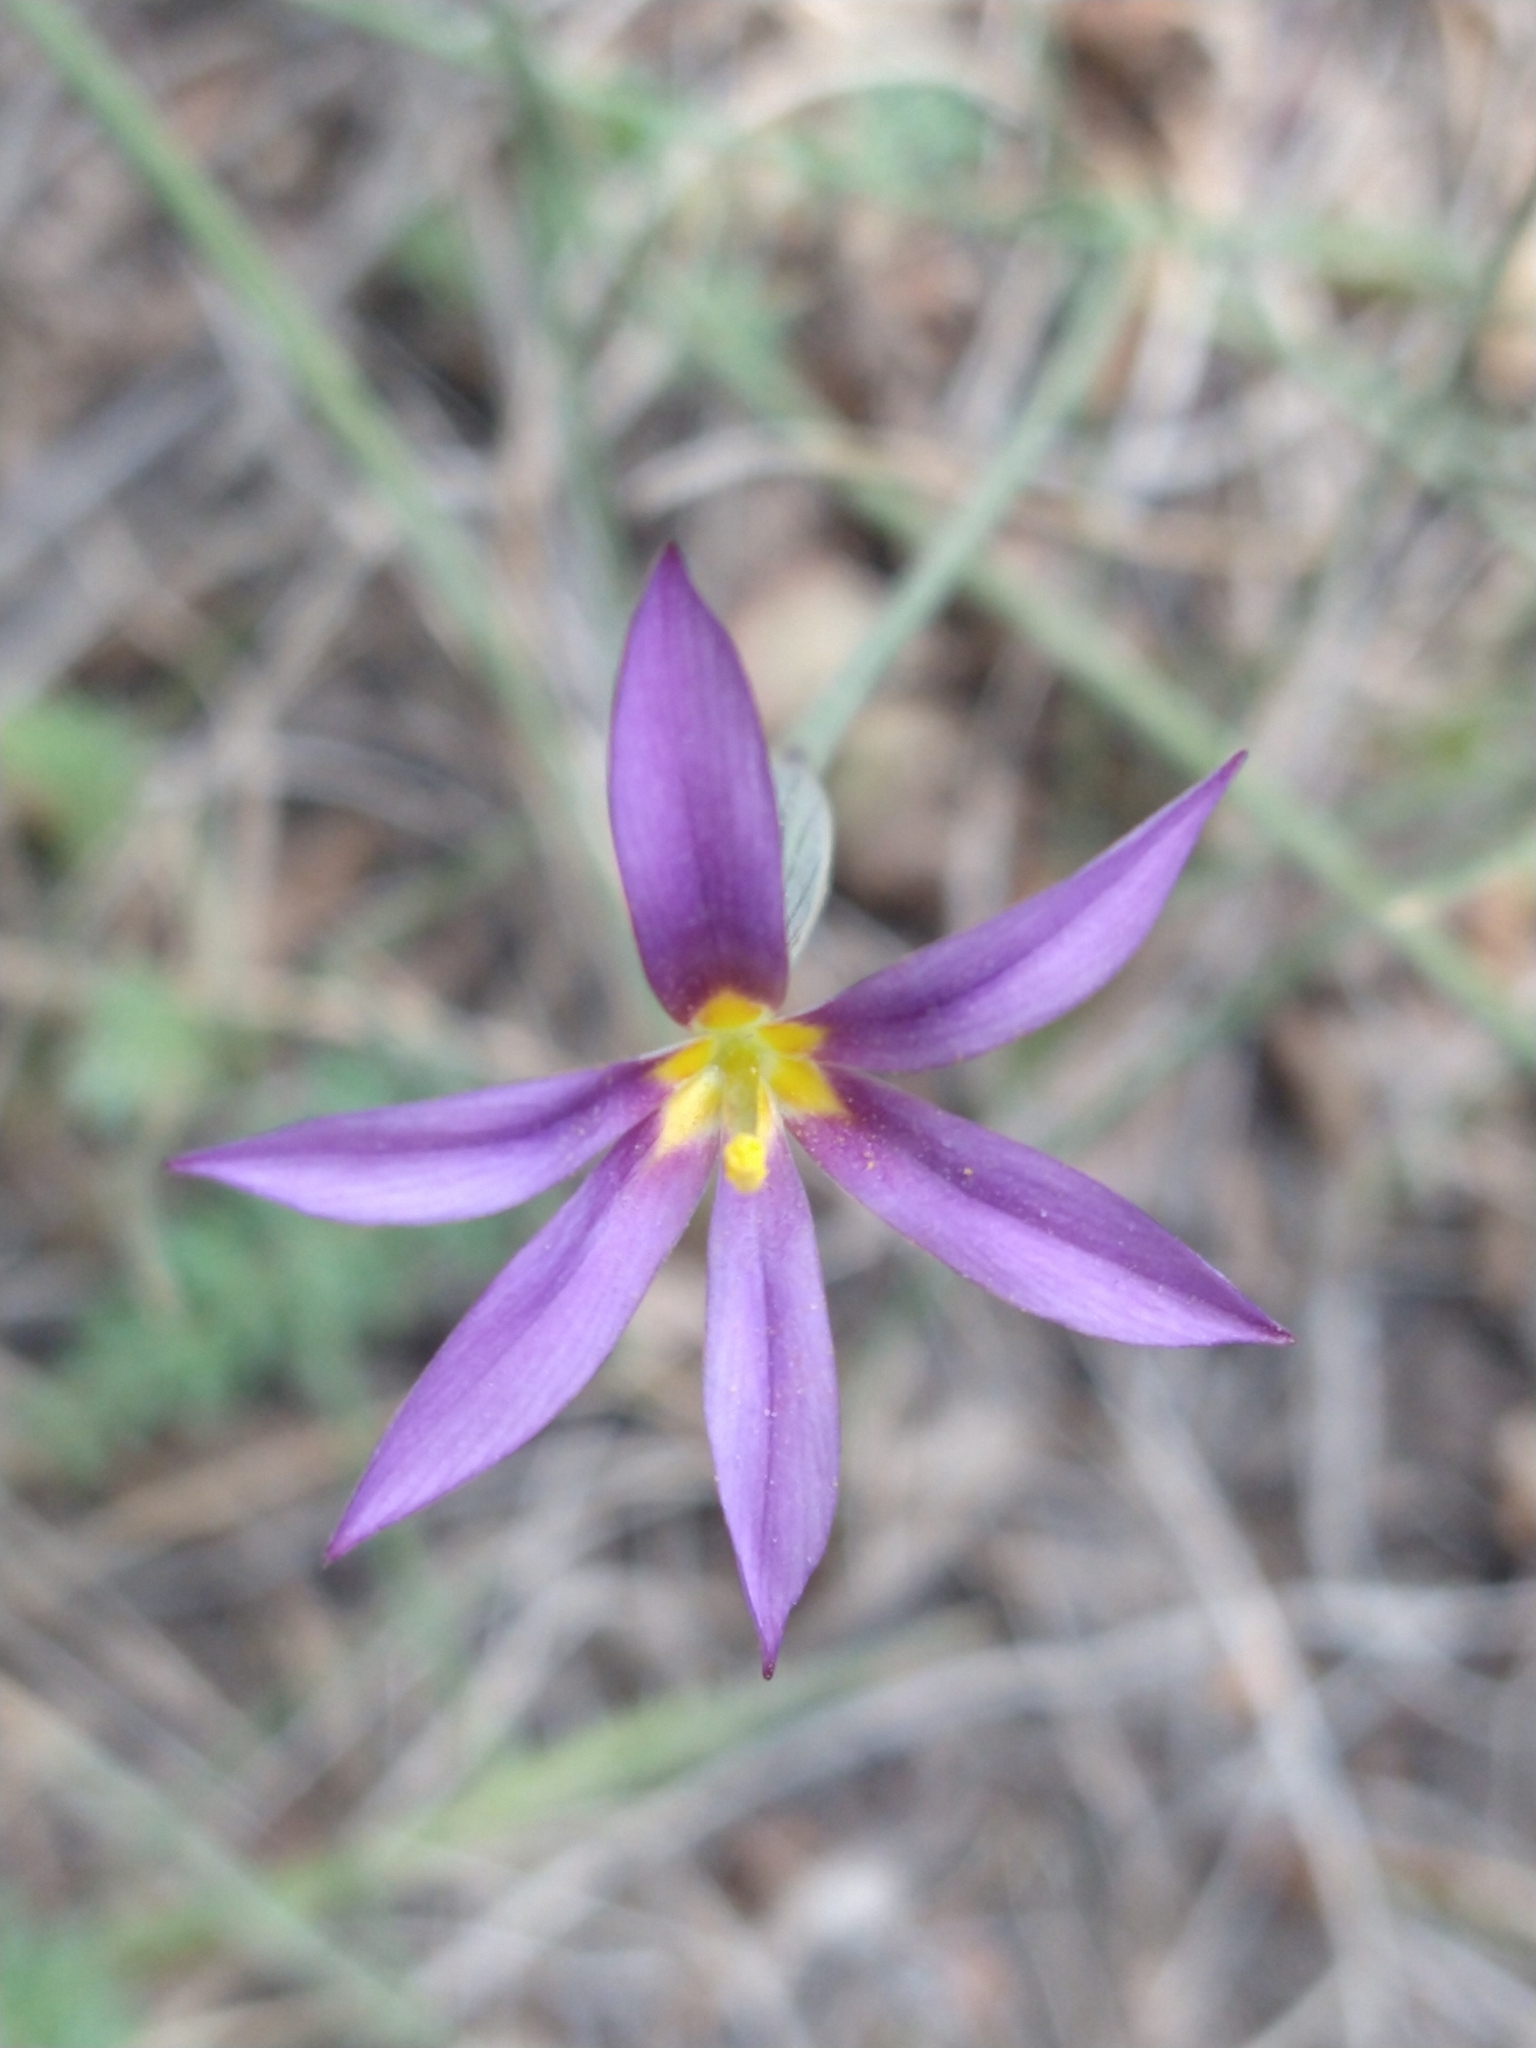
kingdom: Plantae
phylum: Tracheophyta
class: Liliopsida
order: Asparagales
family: Iridaceae
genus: Solenomelus
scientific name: Solenomelus segethi
